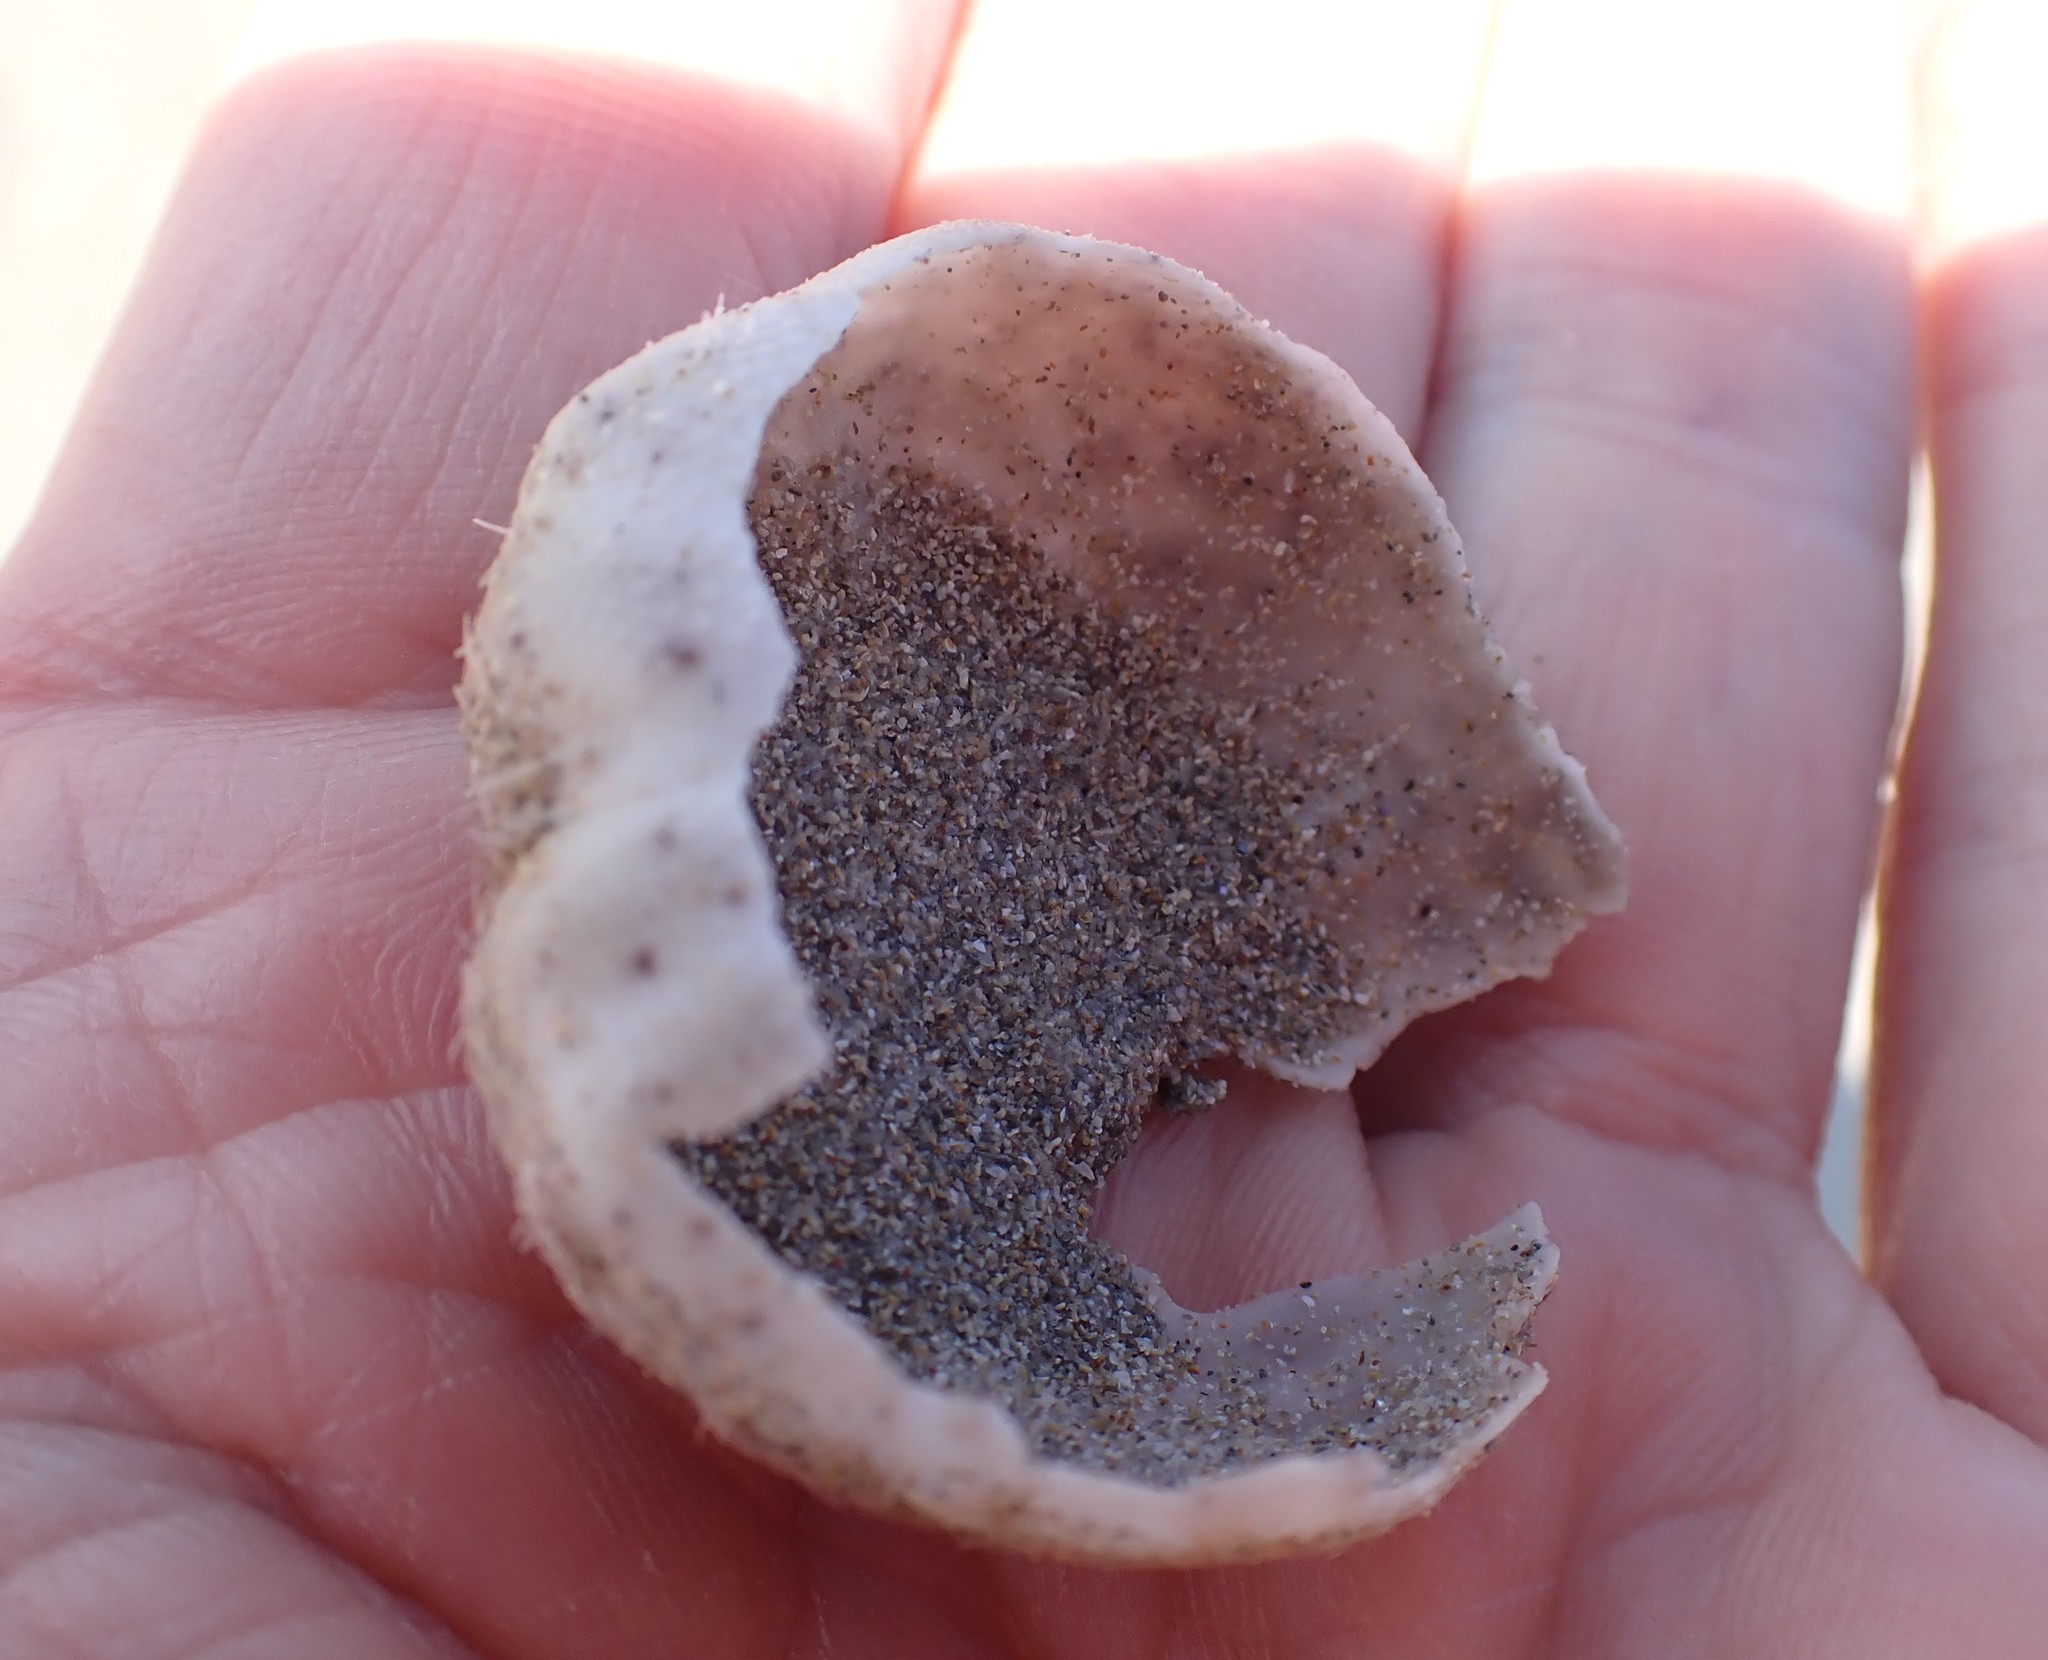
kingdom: Animalia
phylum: Echinodermata
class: Echinoidea
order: Spatangoida
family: Schizasteridae
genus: Protenaster
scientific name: Protenaster australis
